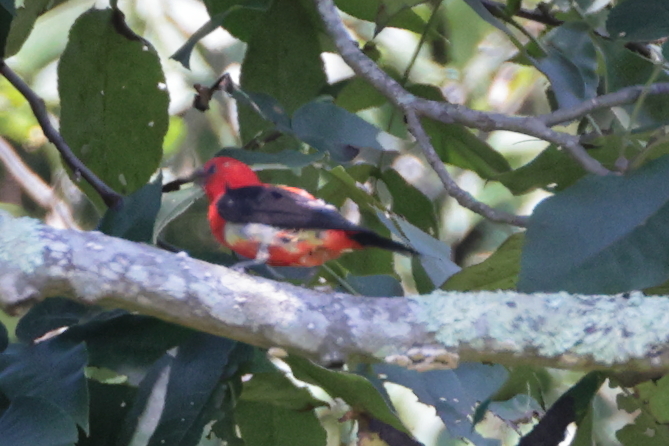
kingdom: Animalia
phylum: Chordata
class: Aves
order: Passeriformes
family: Cardinalidae
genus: Piranga
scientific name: Piranga olivacea
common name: Scarlet tanager
